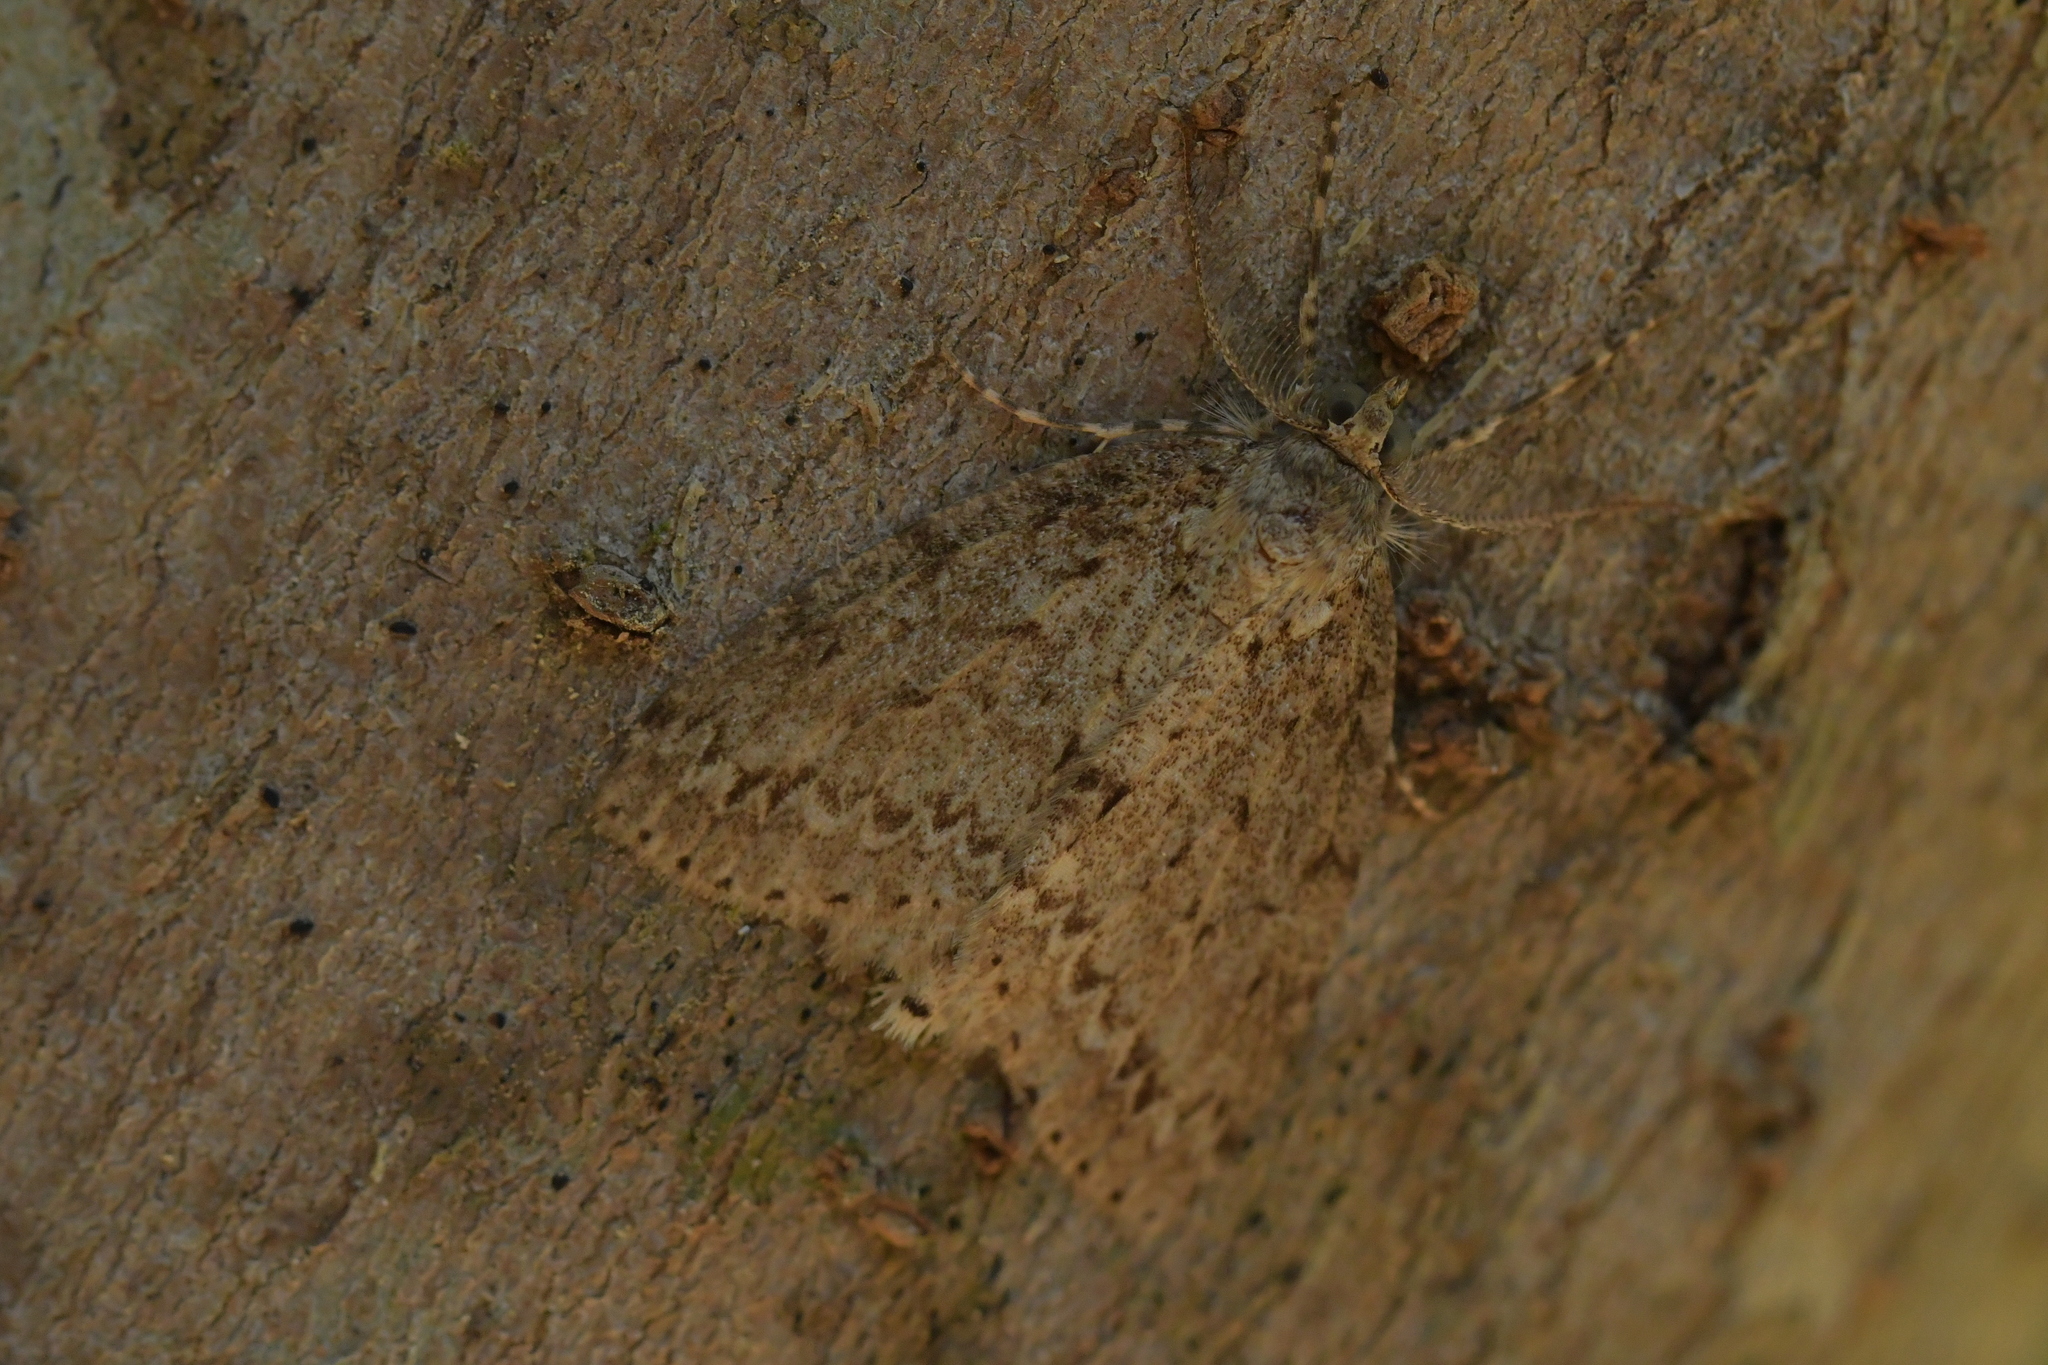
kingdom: Animalia
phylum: Arthropoda
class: Insecta
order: Lepidoptera
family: Geometridae
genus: Pseudocoremia
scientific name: Pseudocoremia fenerata
